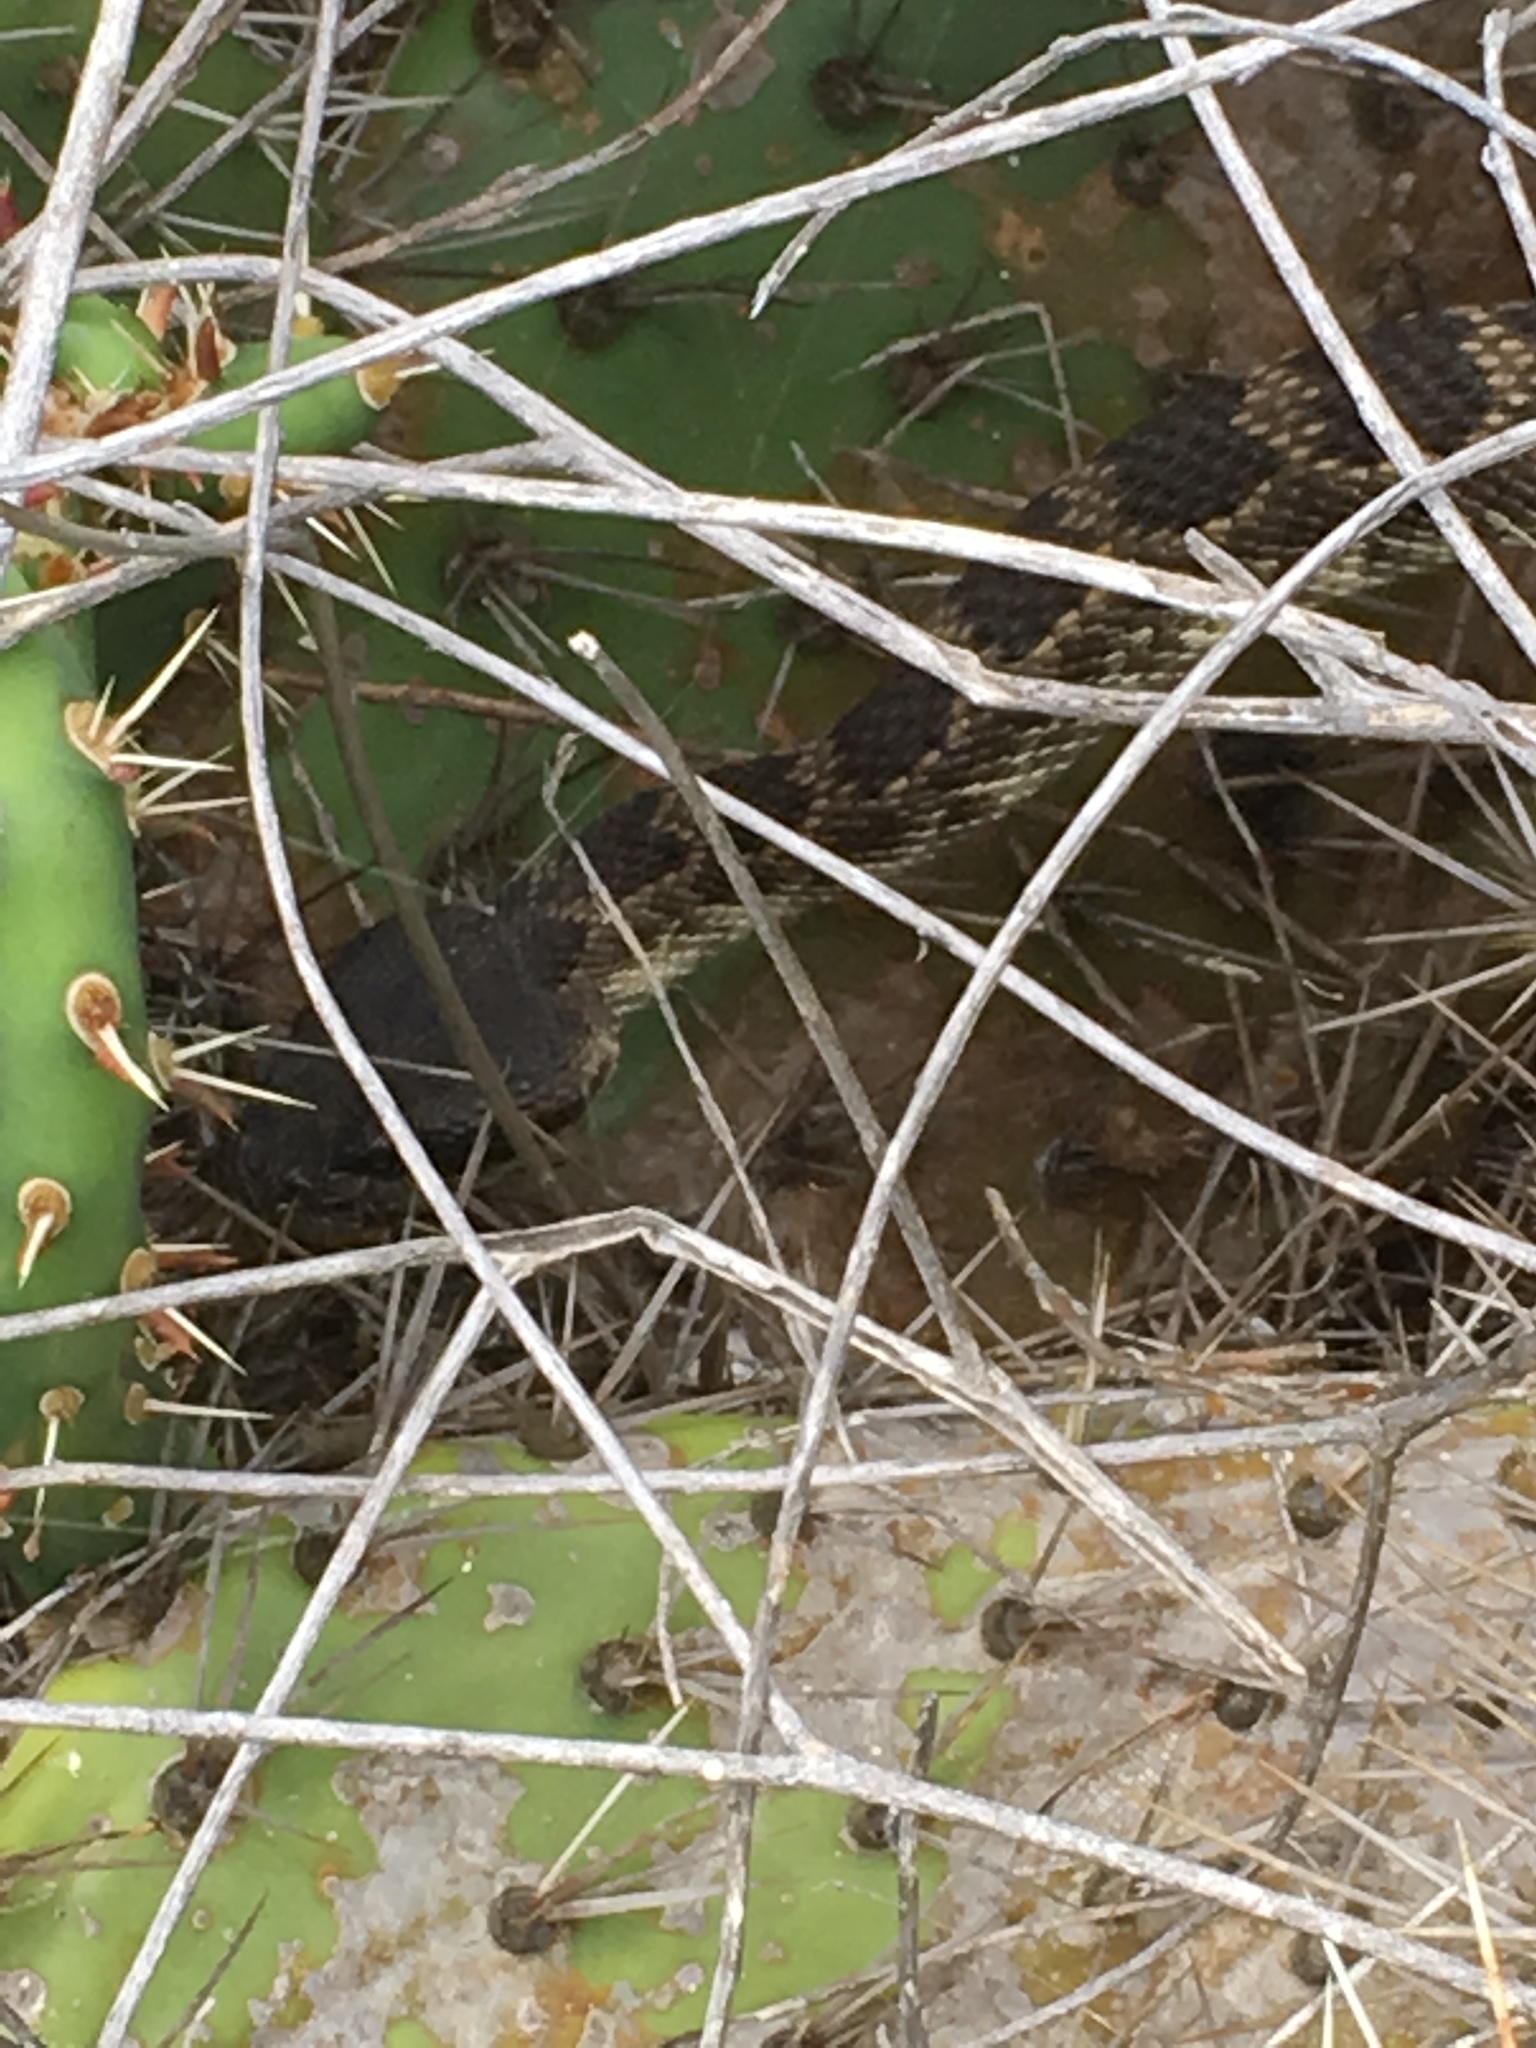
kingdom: Animalia
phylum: Chordata
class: Squamata
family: Viperidae
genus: Crotalus
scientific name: Crotalus oreganus
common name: Abyssus
